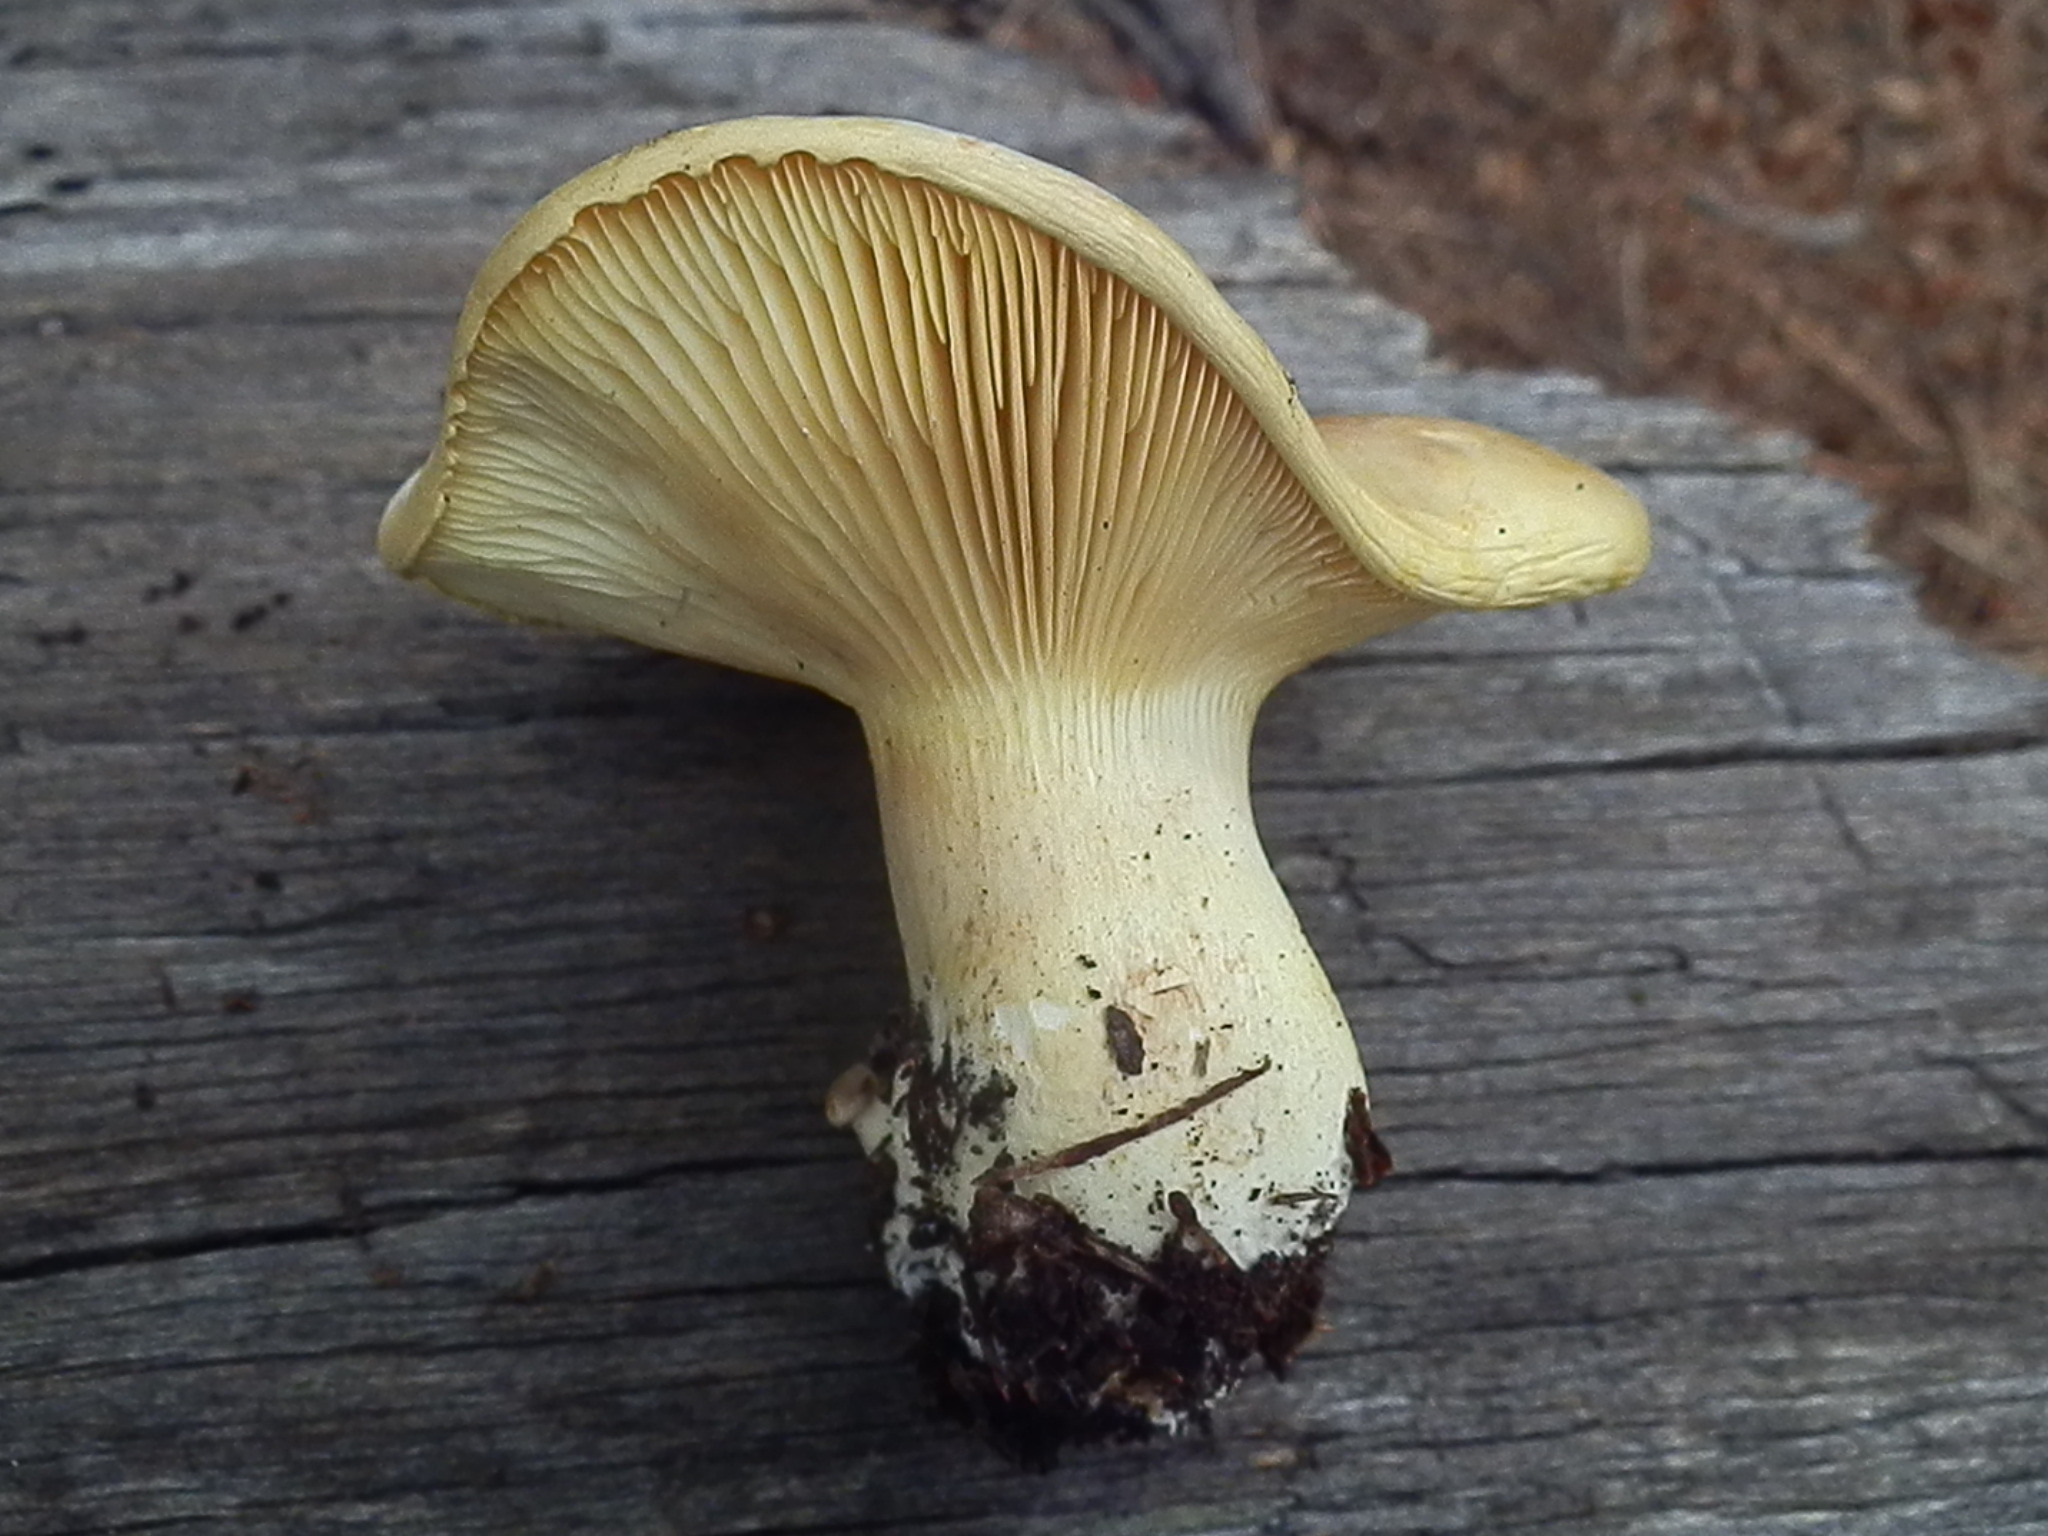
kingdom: Fungi
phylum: Basidiomycota
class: Agaricomycetes
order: Agaricales
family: Hygrophoraceae
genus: Cantharocybe
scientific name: Cantharocybe gruberi
